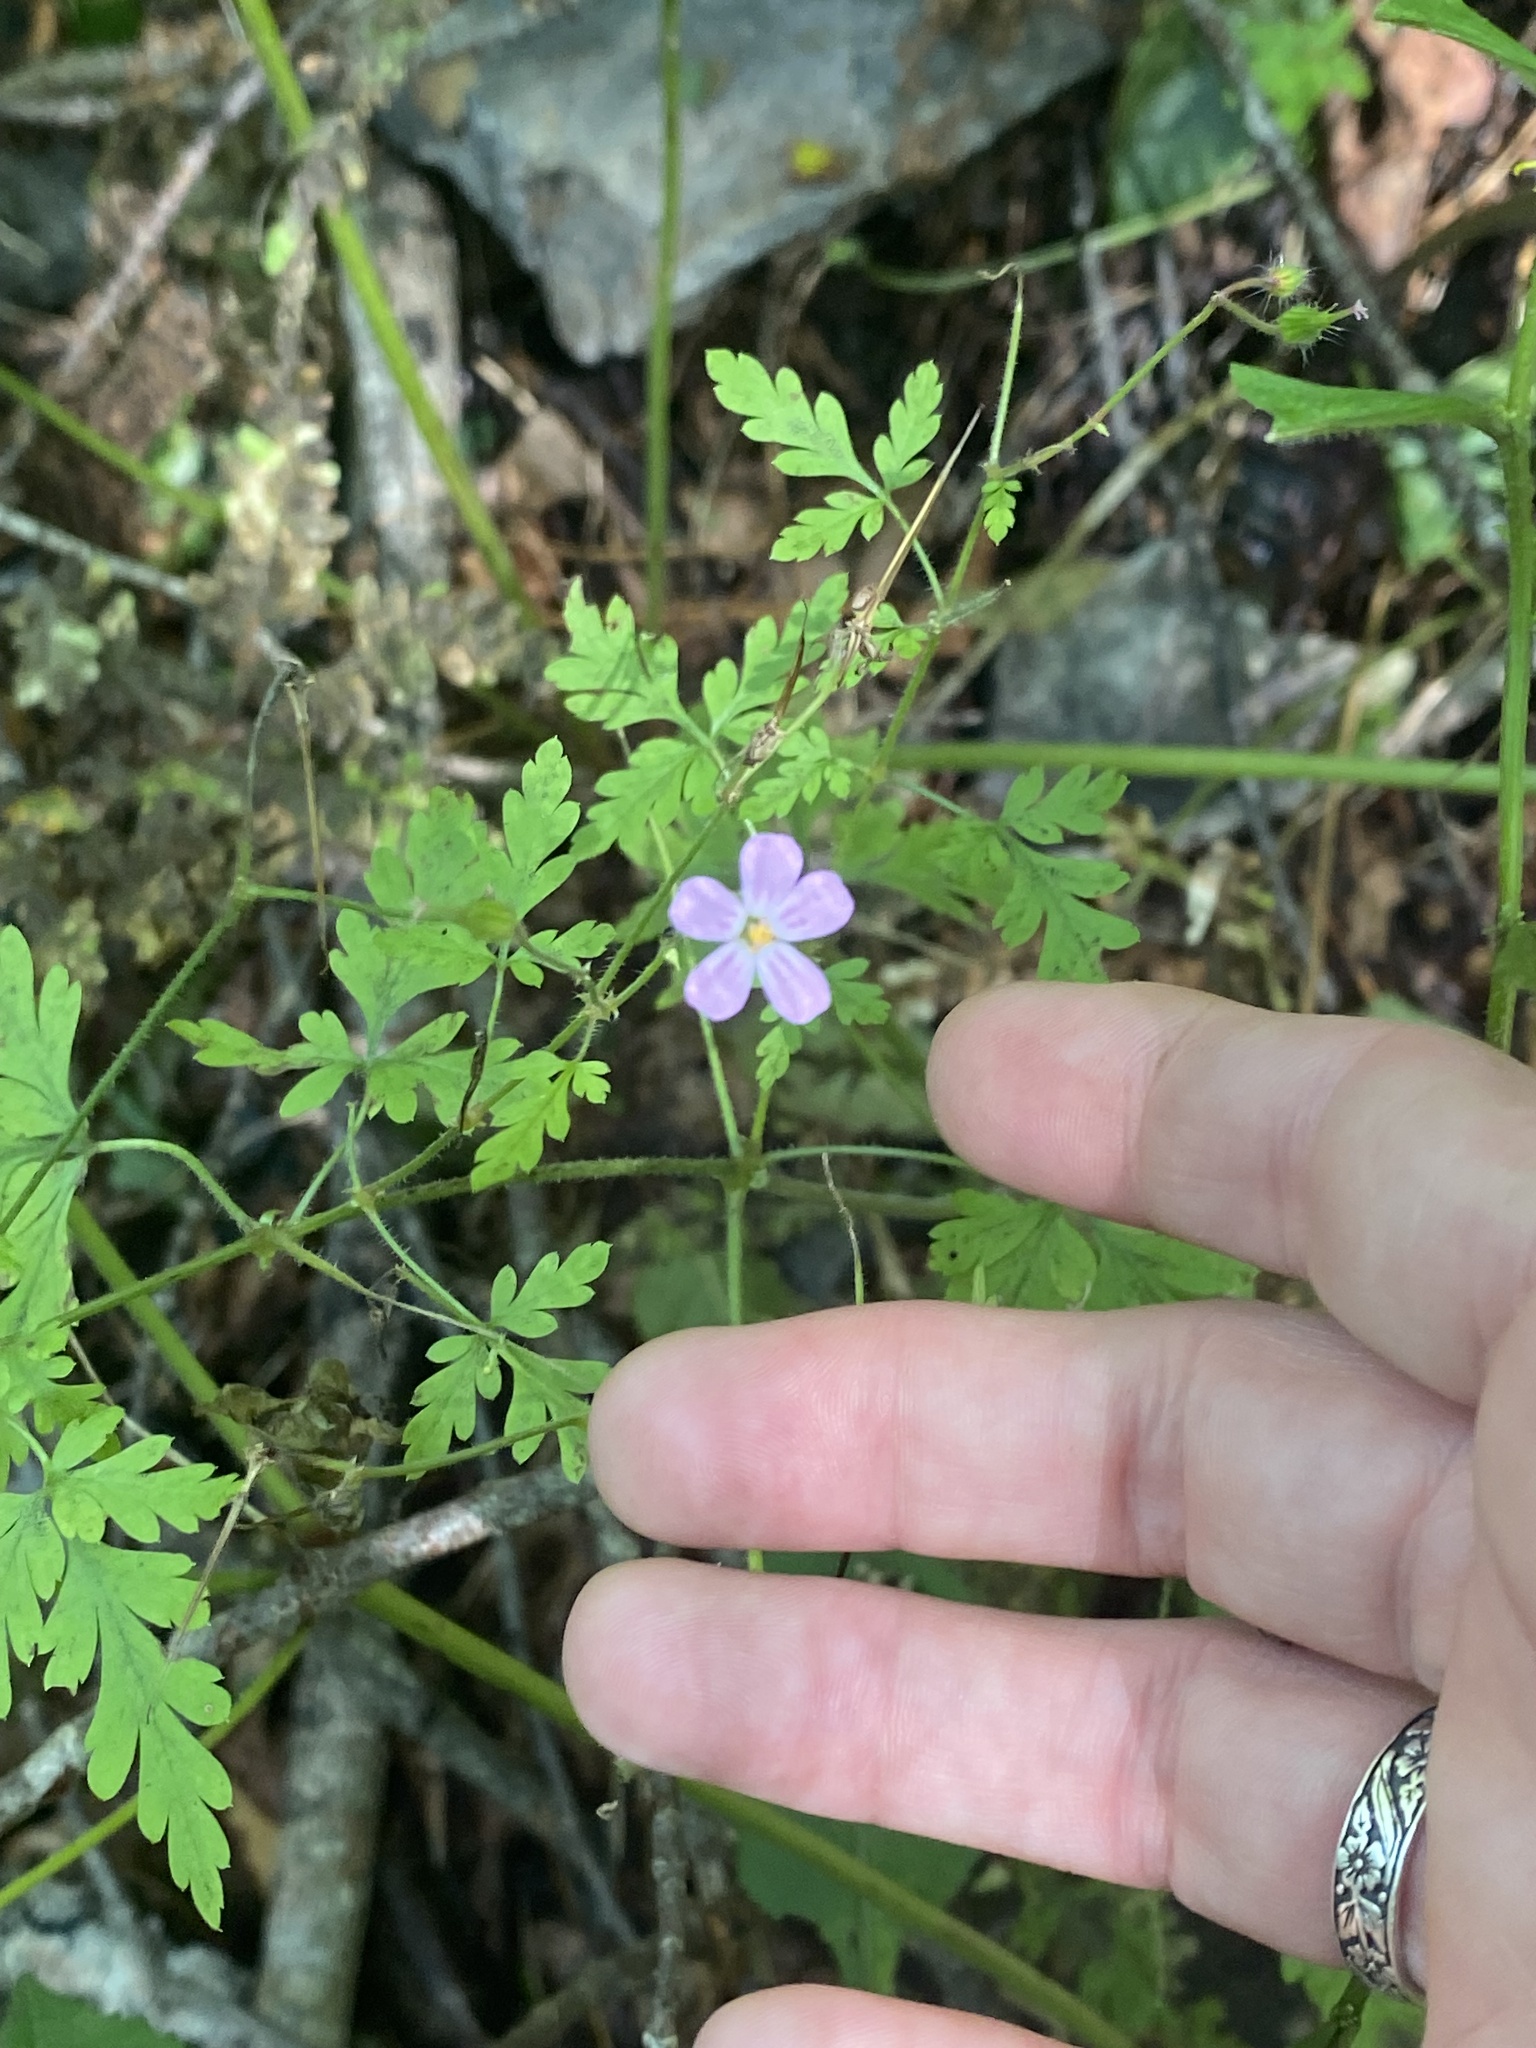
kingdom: Plantae
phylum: Tracheophyta
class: Magnoliopsida
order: Geraniales
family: Geraniaceae
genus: Geranium
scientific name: Geranium robertianum
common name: Herb-robert
